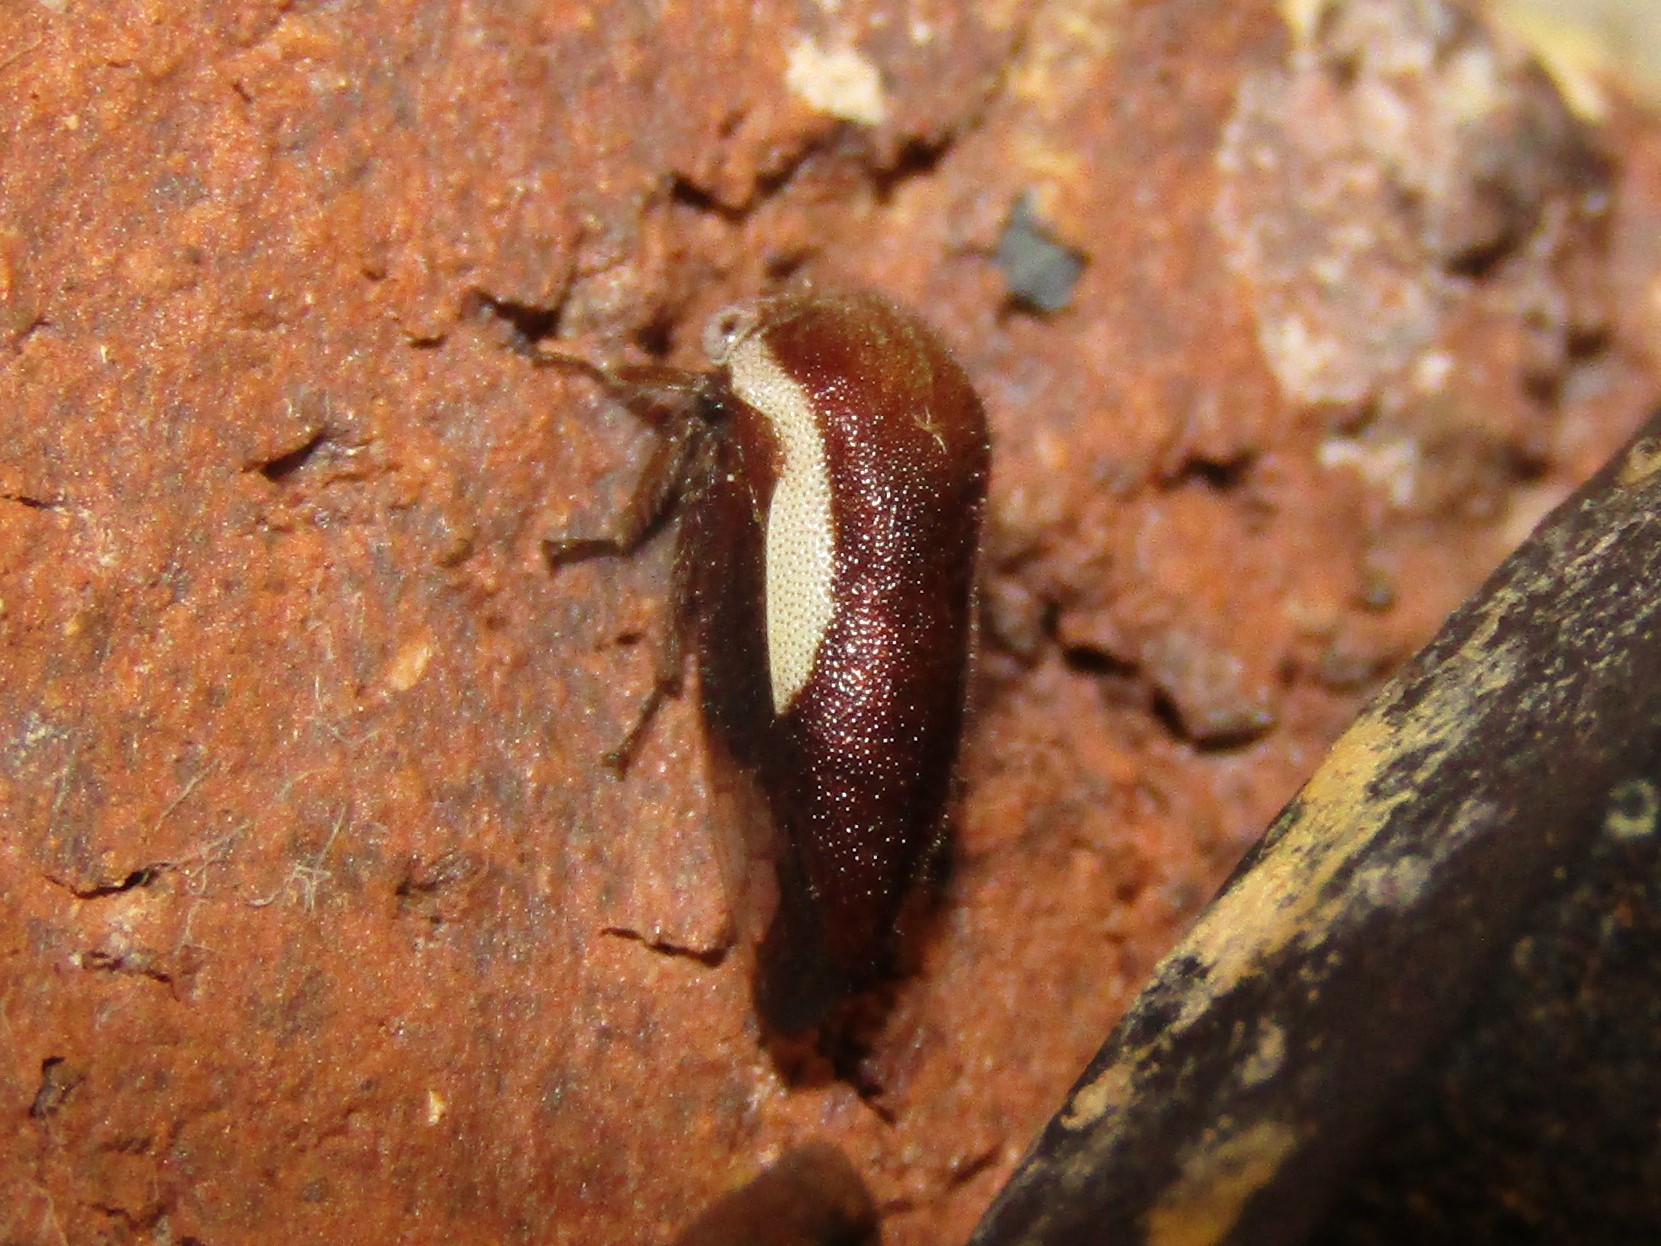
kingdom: Animalia
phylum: Arthropoda
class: Insecta
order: Hemiptera
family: Membracidae
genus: Ophiderma
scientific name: Ophiderma flavicephala
